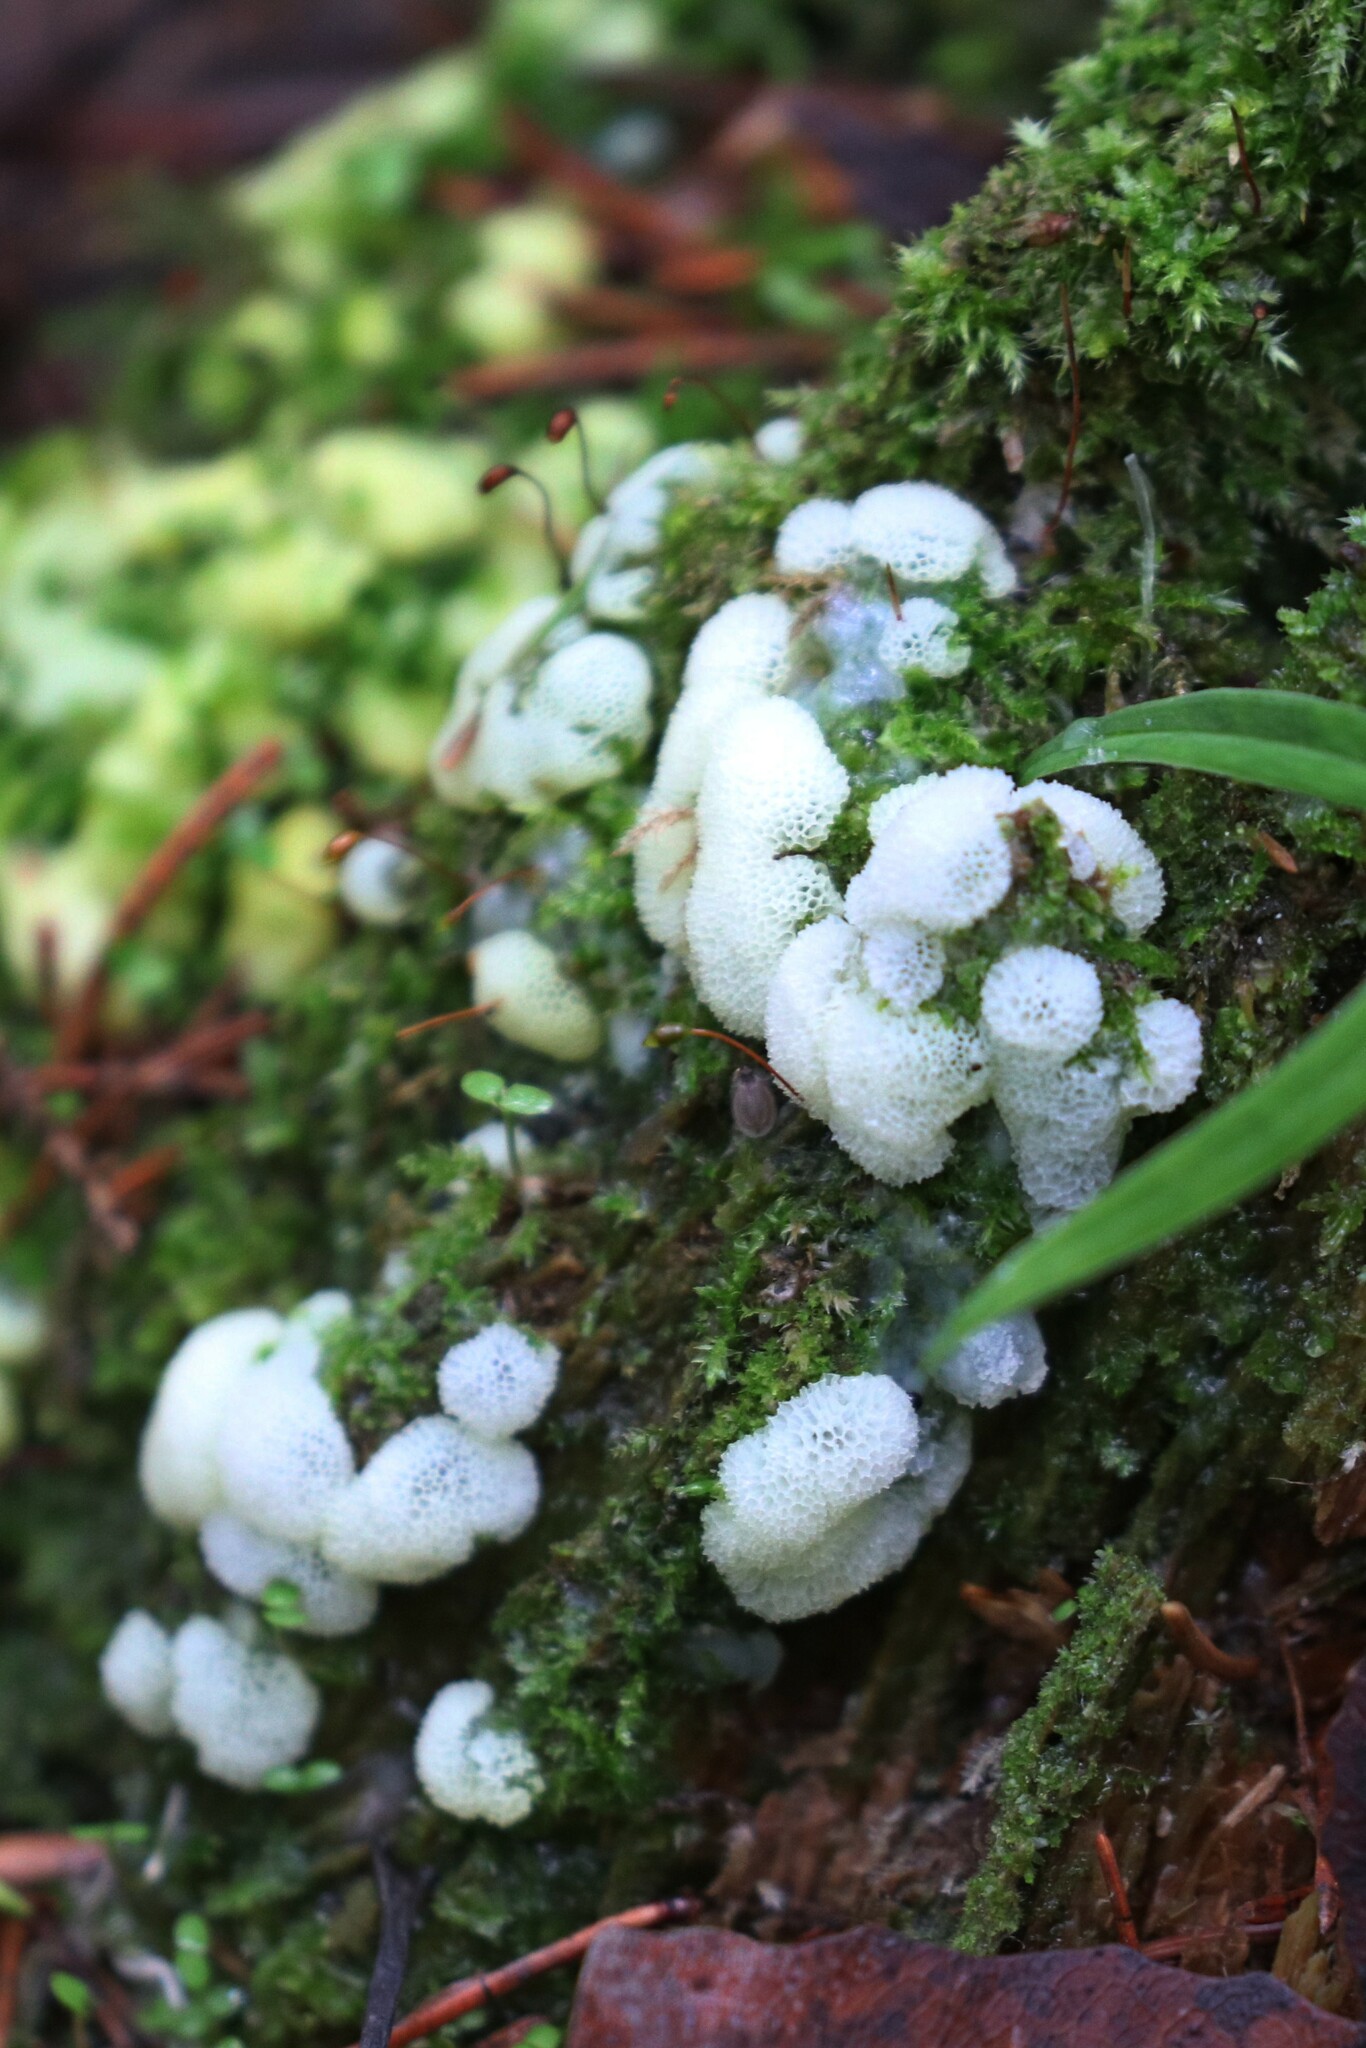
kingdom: Protozoa
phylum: Mycetozoa
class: Protosteliomycetes
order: Ceratiomyxales
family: Ceratiomyxaceae
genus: Ceratiomyxa
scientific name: Ceratiomyxa fruticulosa
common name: Honeycomb coral slime mold
